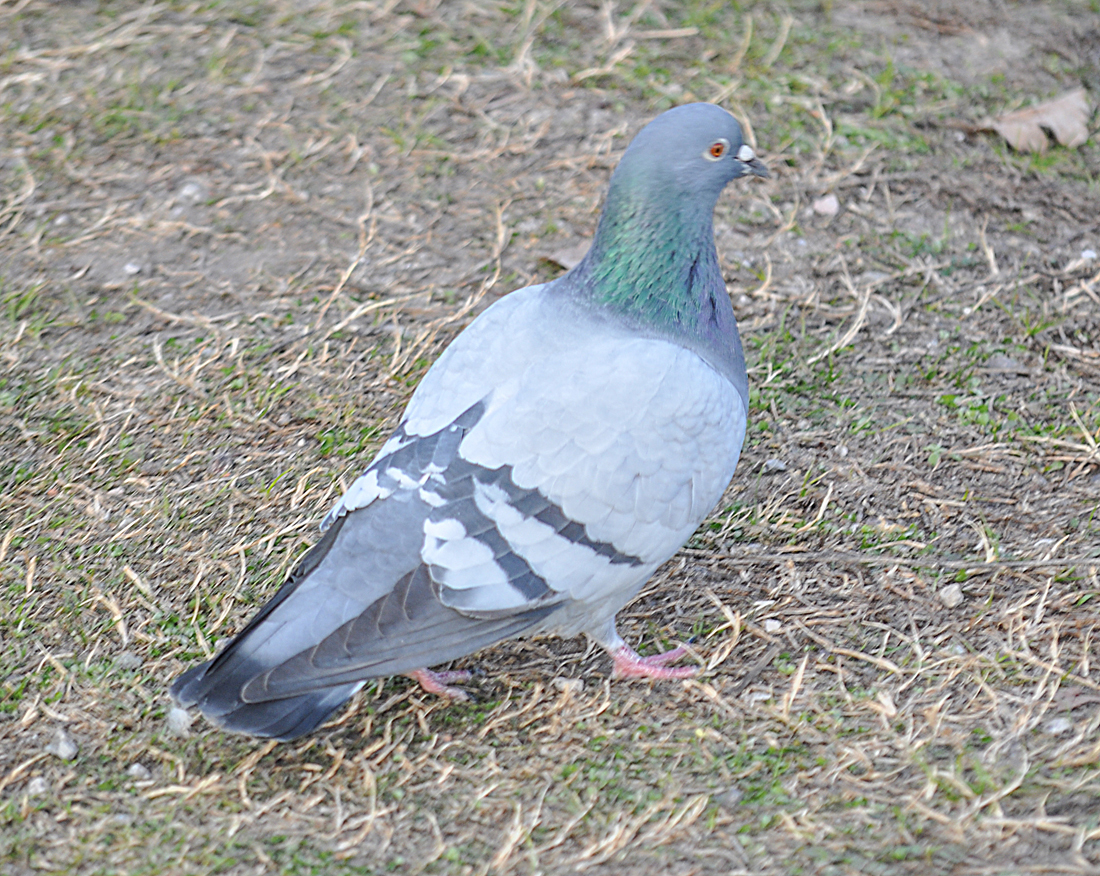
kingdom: Animalia
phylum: Chordata
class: Aves
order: Columbiformes
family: Columbidae
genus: Columba
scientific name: Columba livia
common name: Rock pigeon
